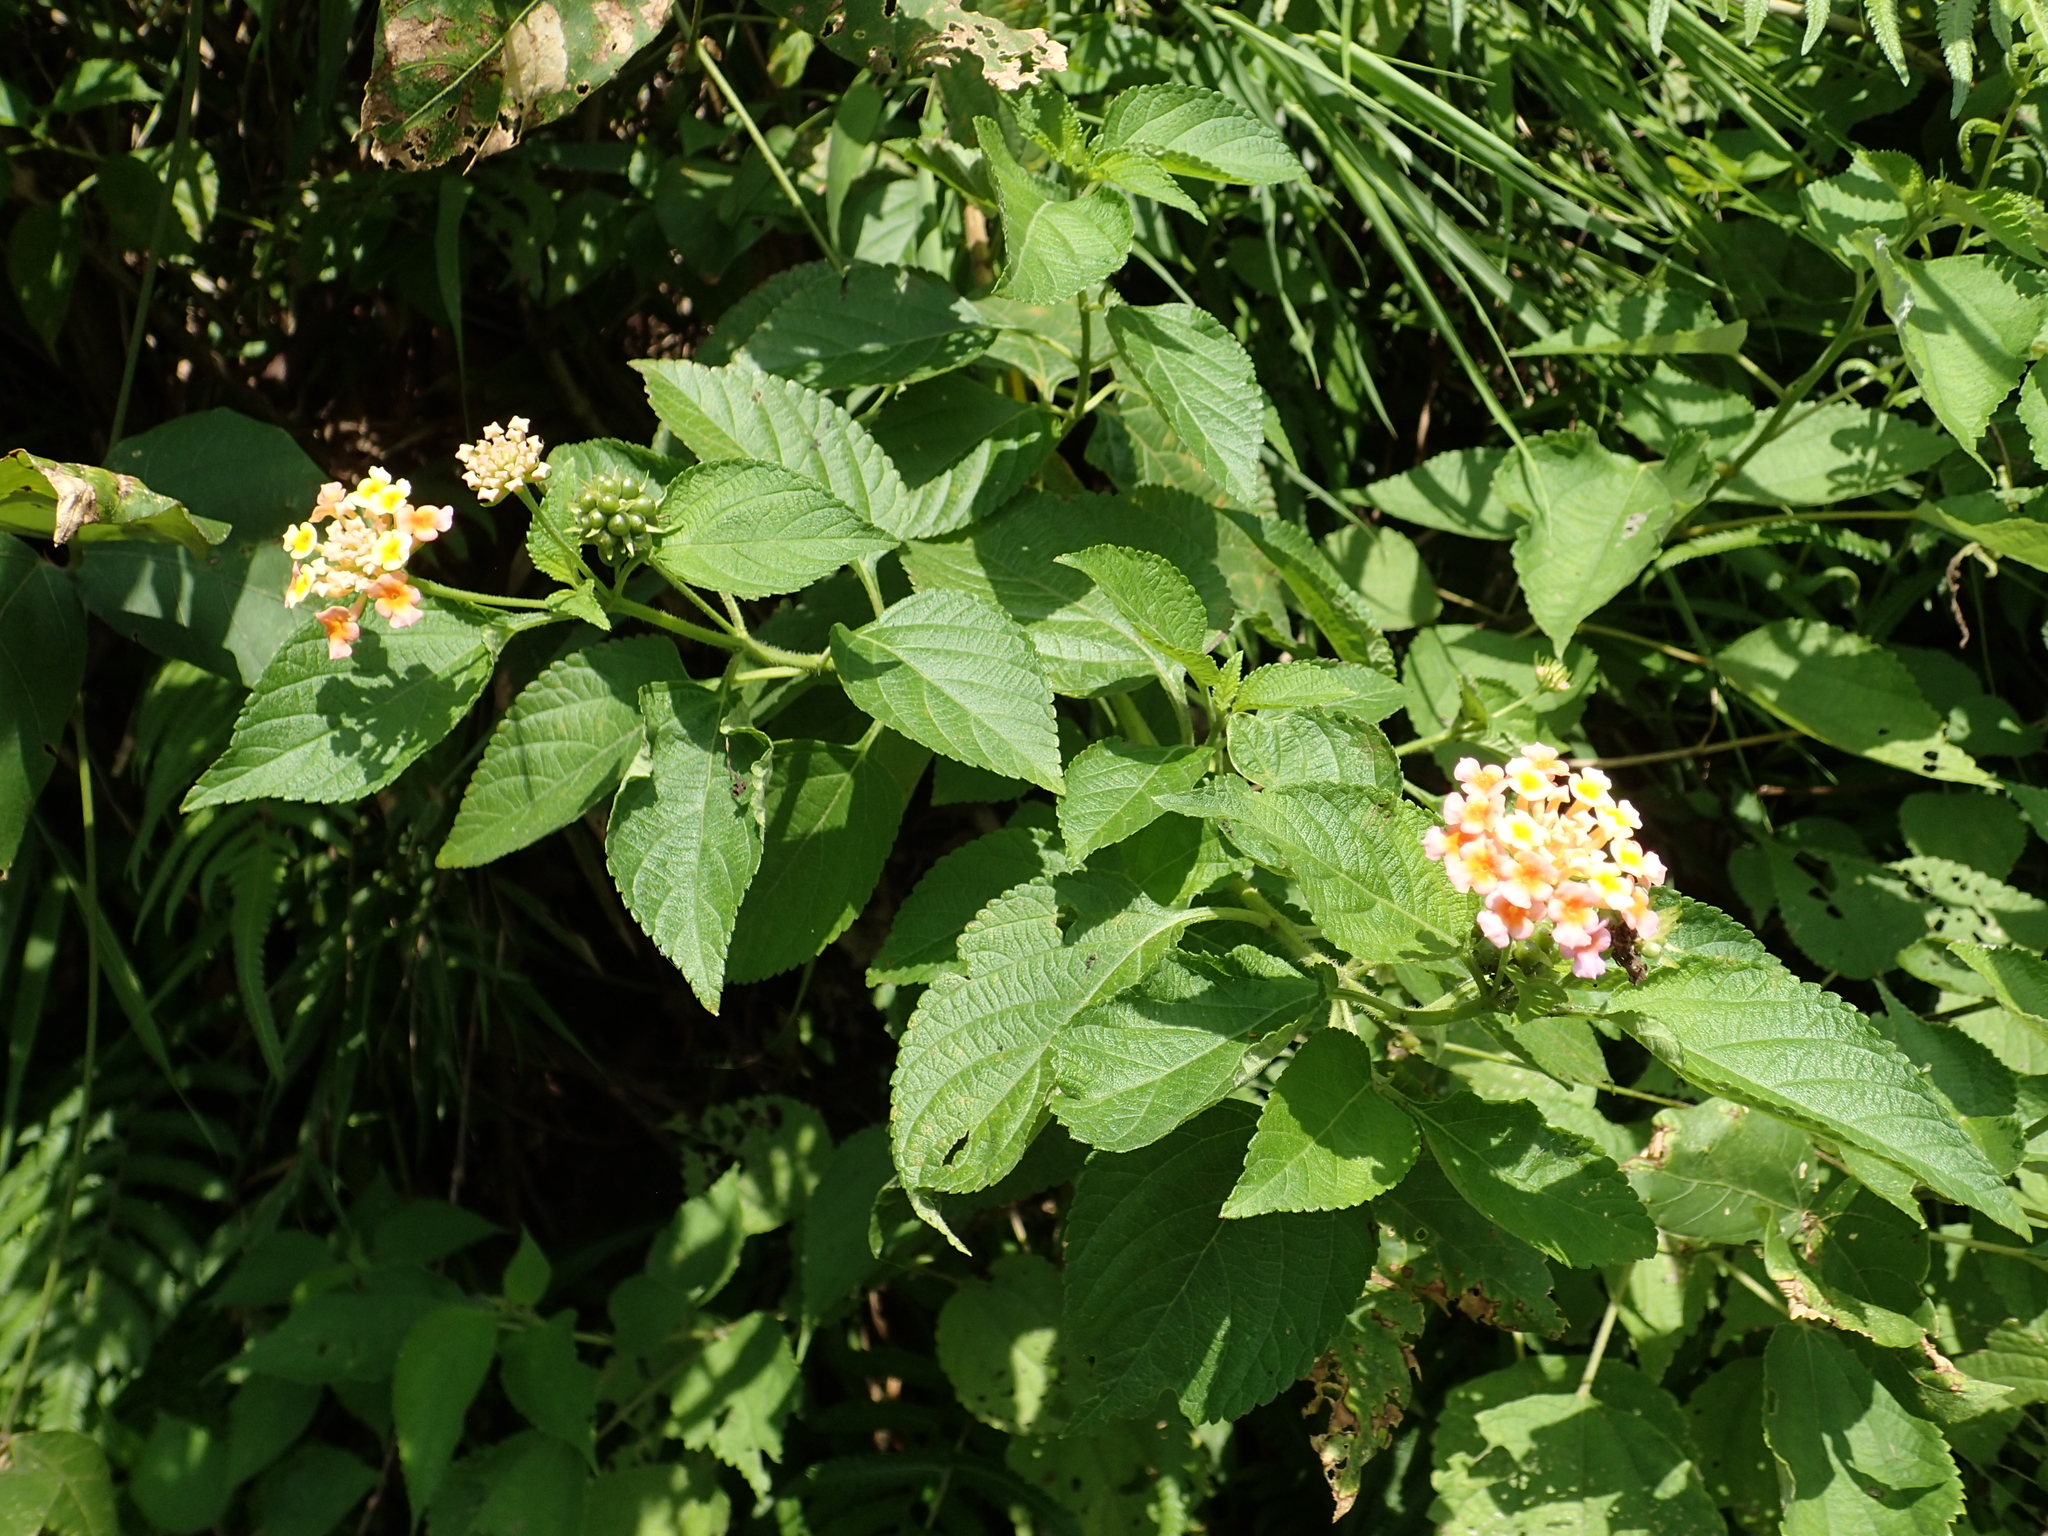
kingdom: Plantae
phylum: Tracheophyta
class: Magnoliopsida
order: Lamiales
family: Verbenaceae
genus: Lantana
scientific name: Lantana camara
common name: Lantana
